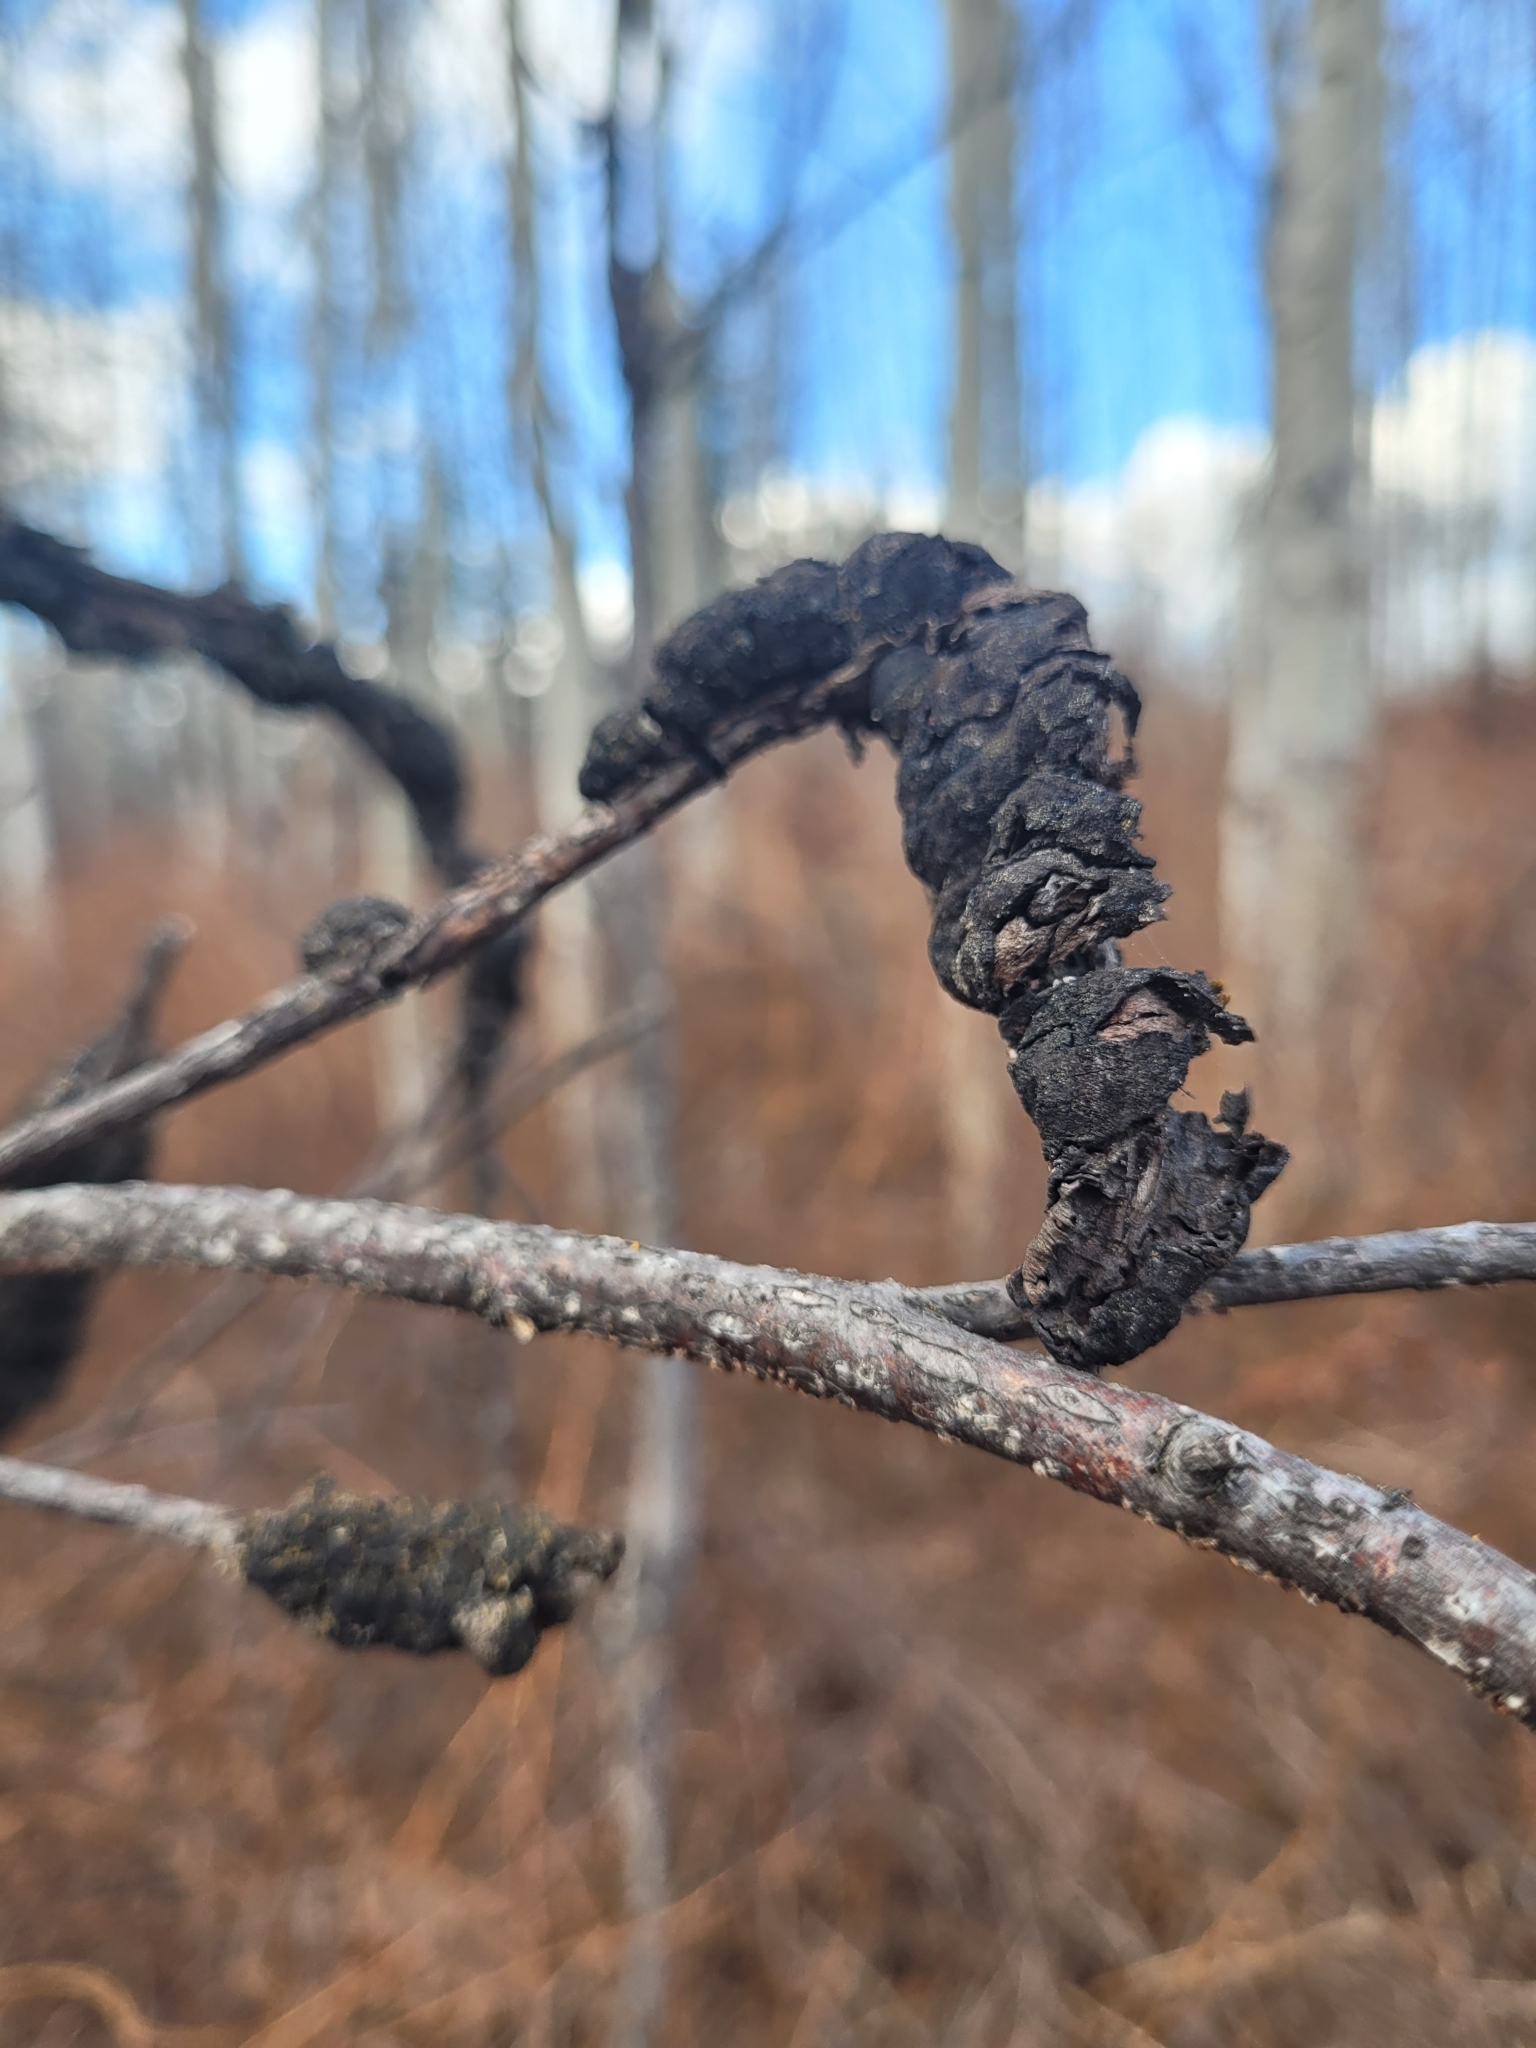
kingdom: Fungi
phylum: Ascomycota
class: Dothideomycetes
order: Venturiales
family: Venturiaceae
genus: Apiosporina
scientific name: Apiosporina morbosa
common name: Black knot
